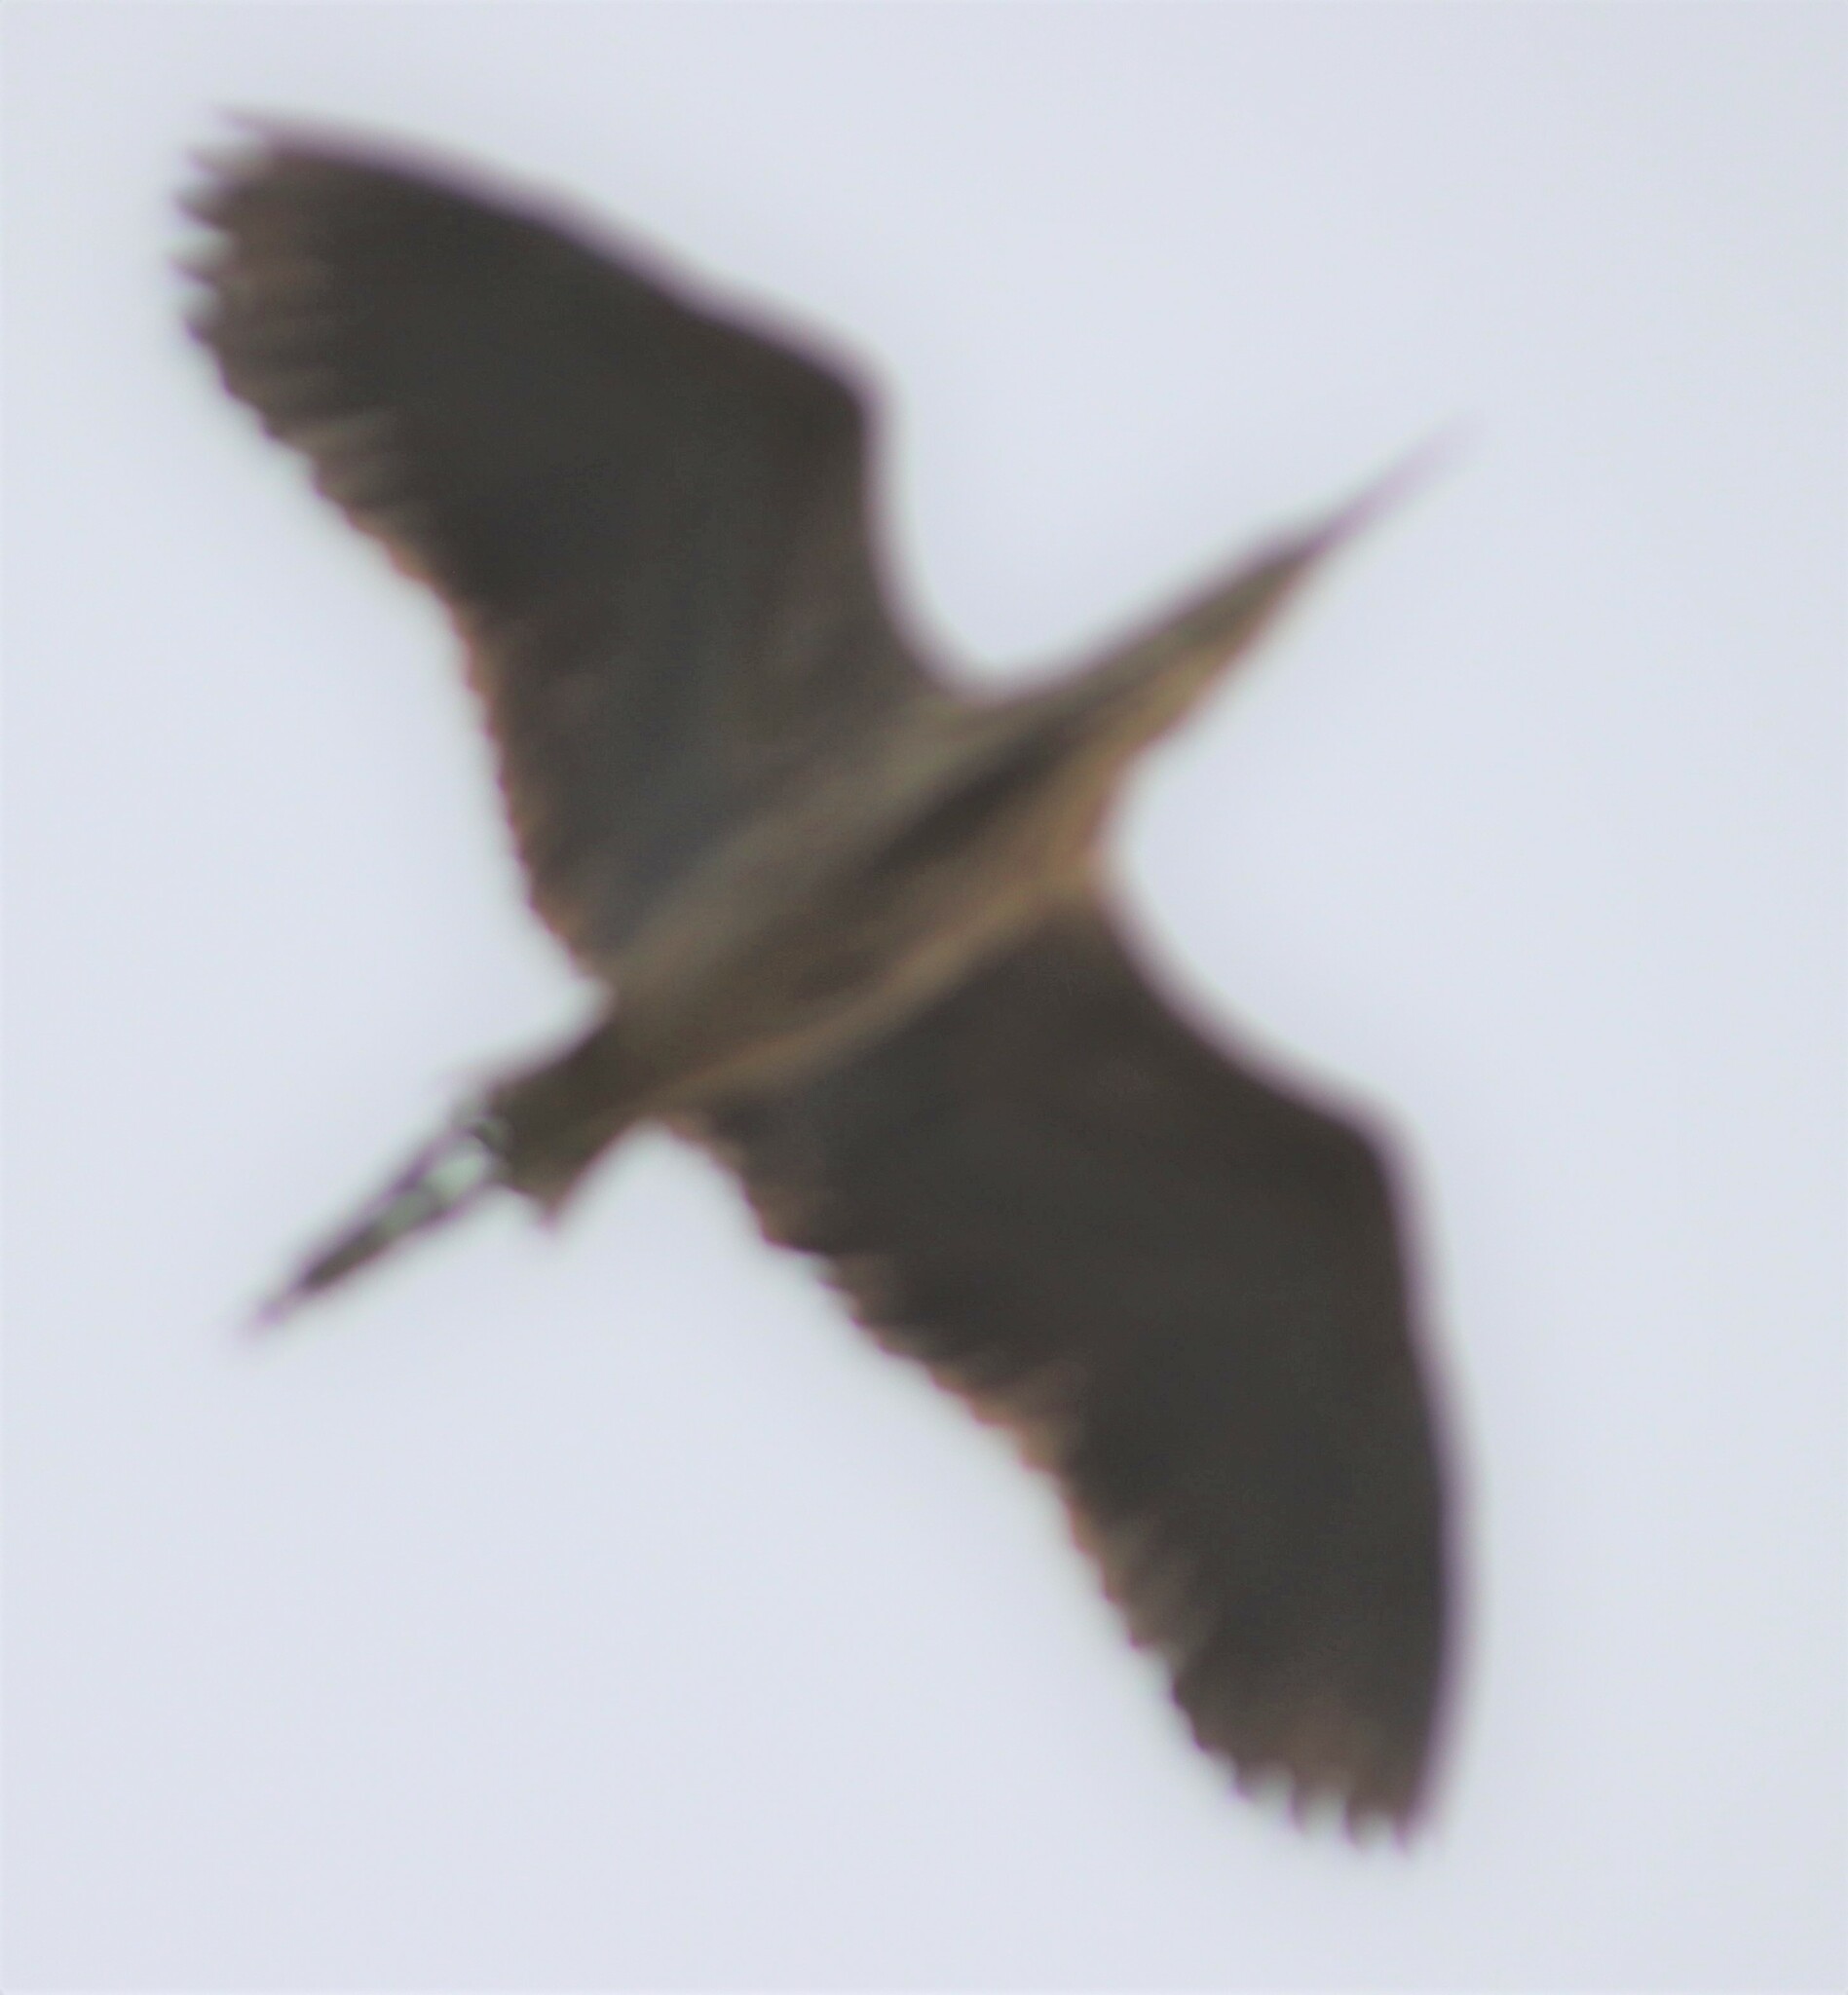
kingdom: Animalia
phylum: Chordata
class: Aves
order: Pelecaniformes
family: Ardeidae
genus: Botaurus
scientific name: Botaurus lentiginosus
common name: American bittern
